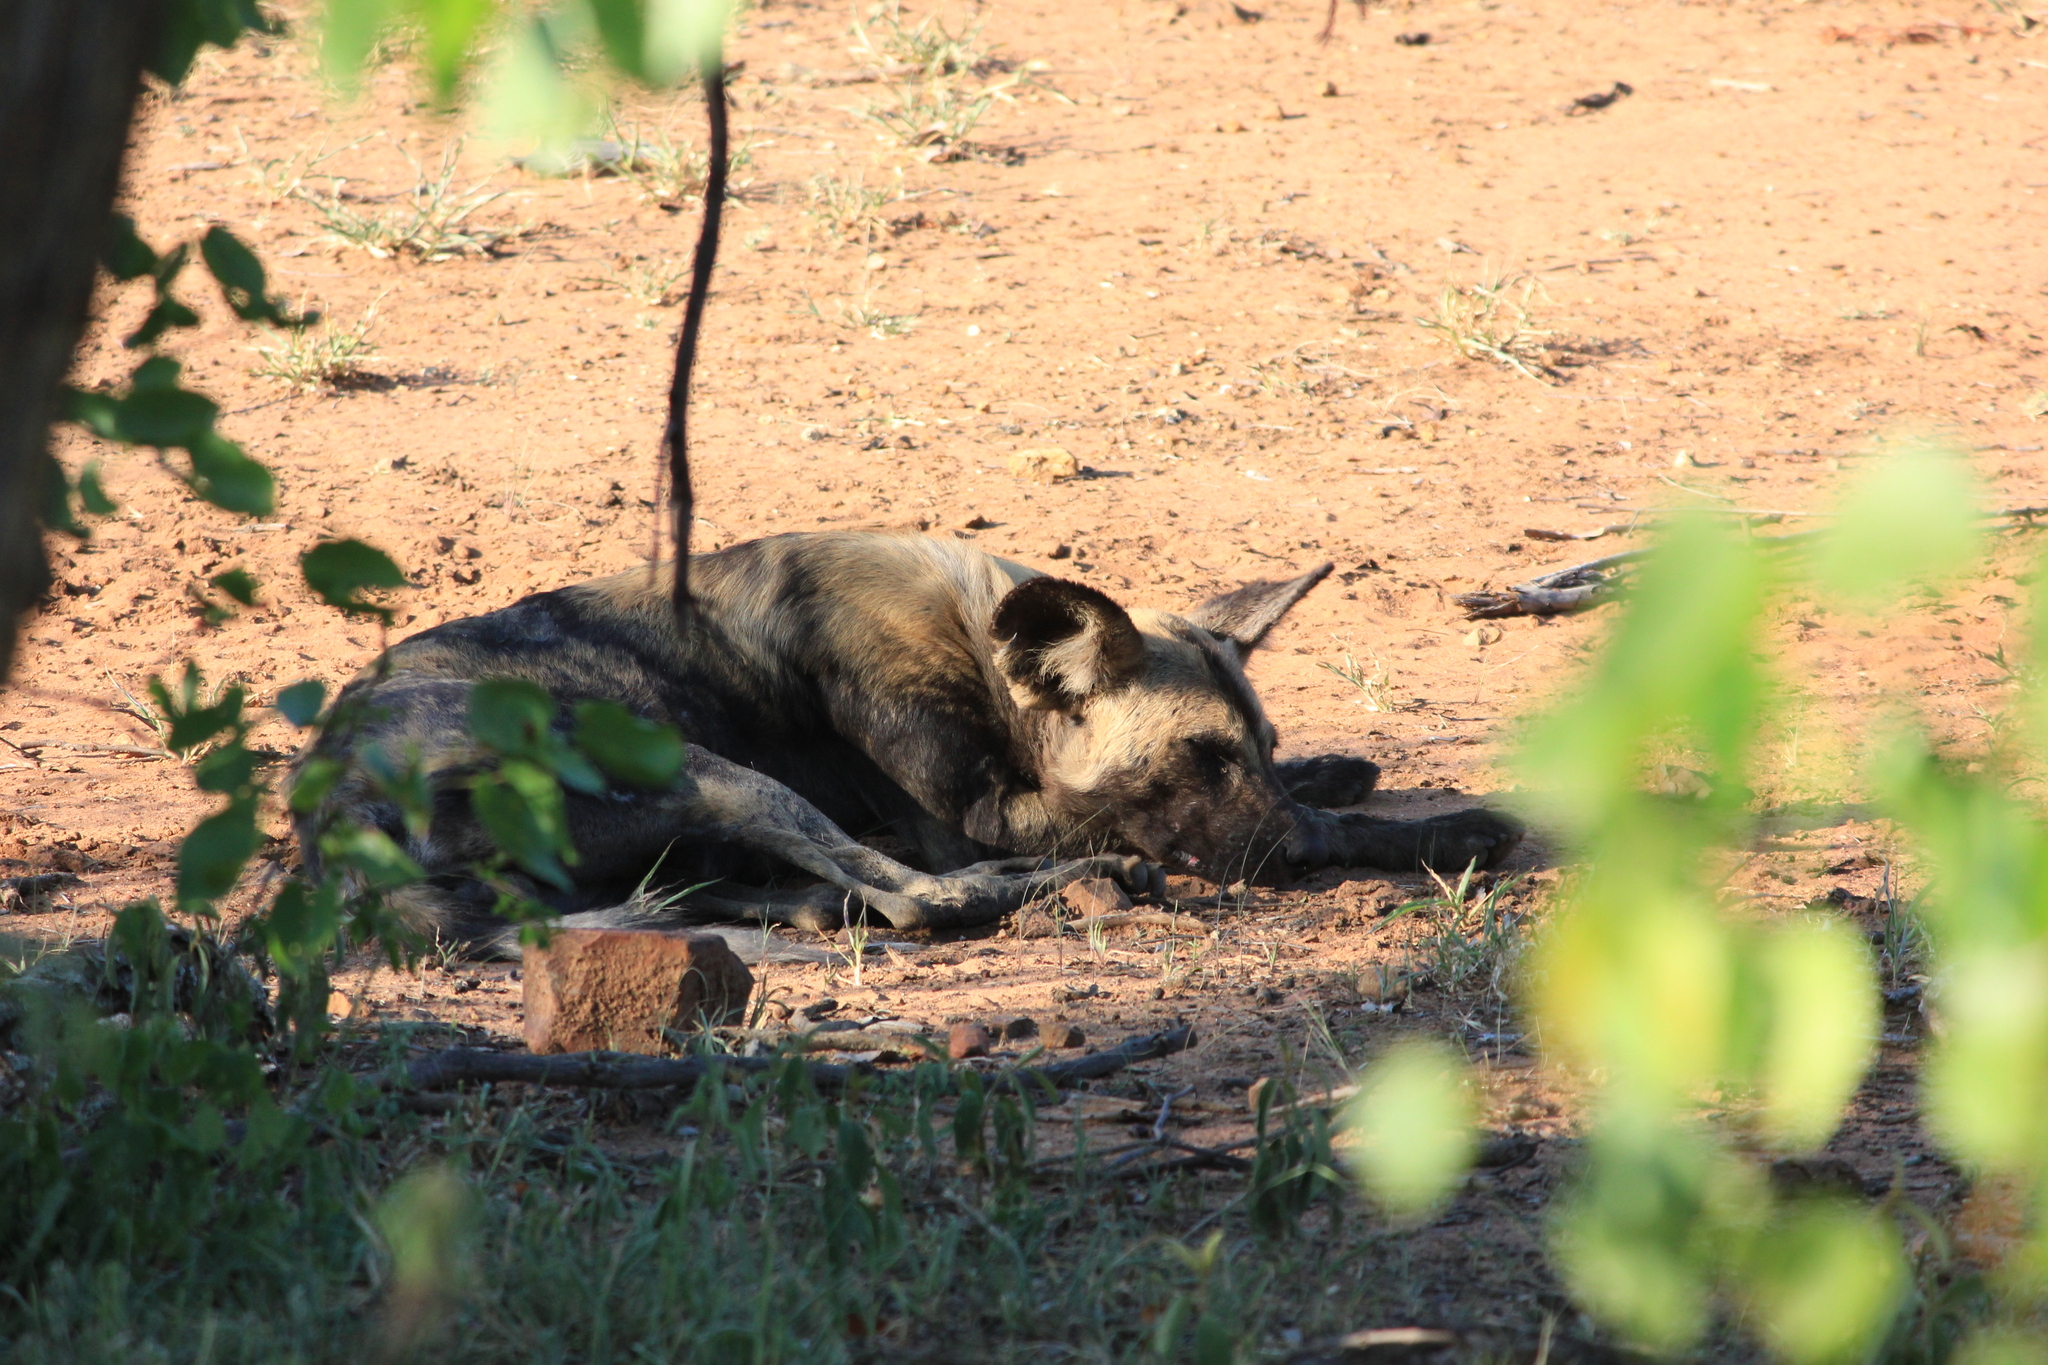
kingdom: Animalia
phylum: Chordata
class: Mammalia
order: Carnivora
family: Canidae
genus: Lycaon
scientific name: Lycaon pictus
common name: African wild dog
